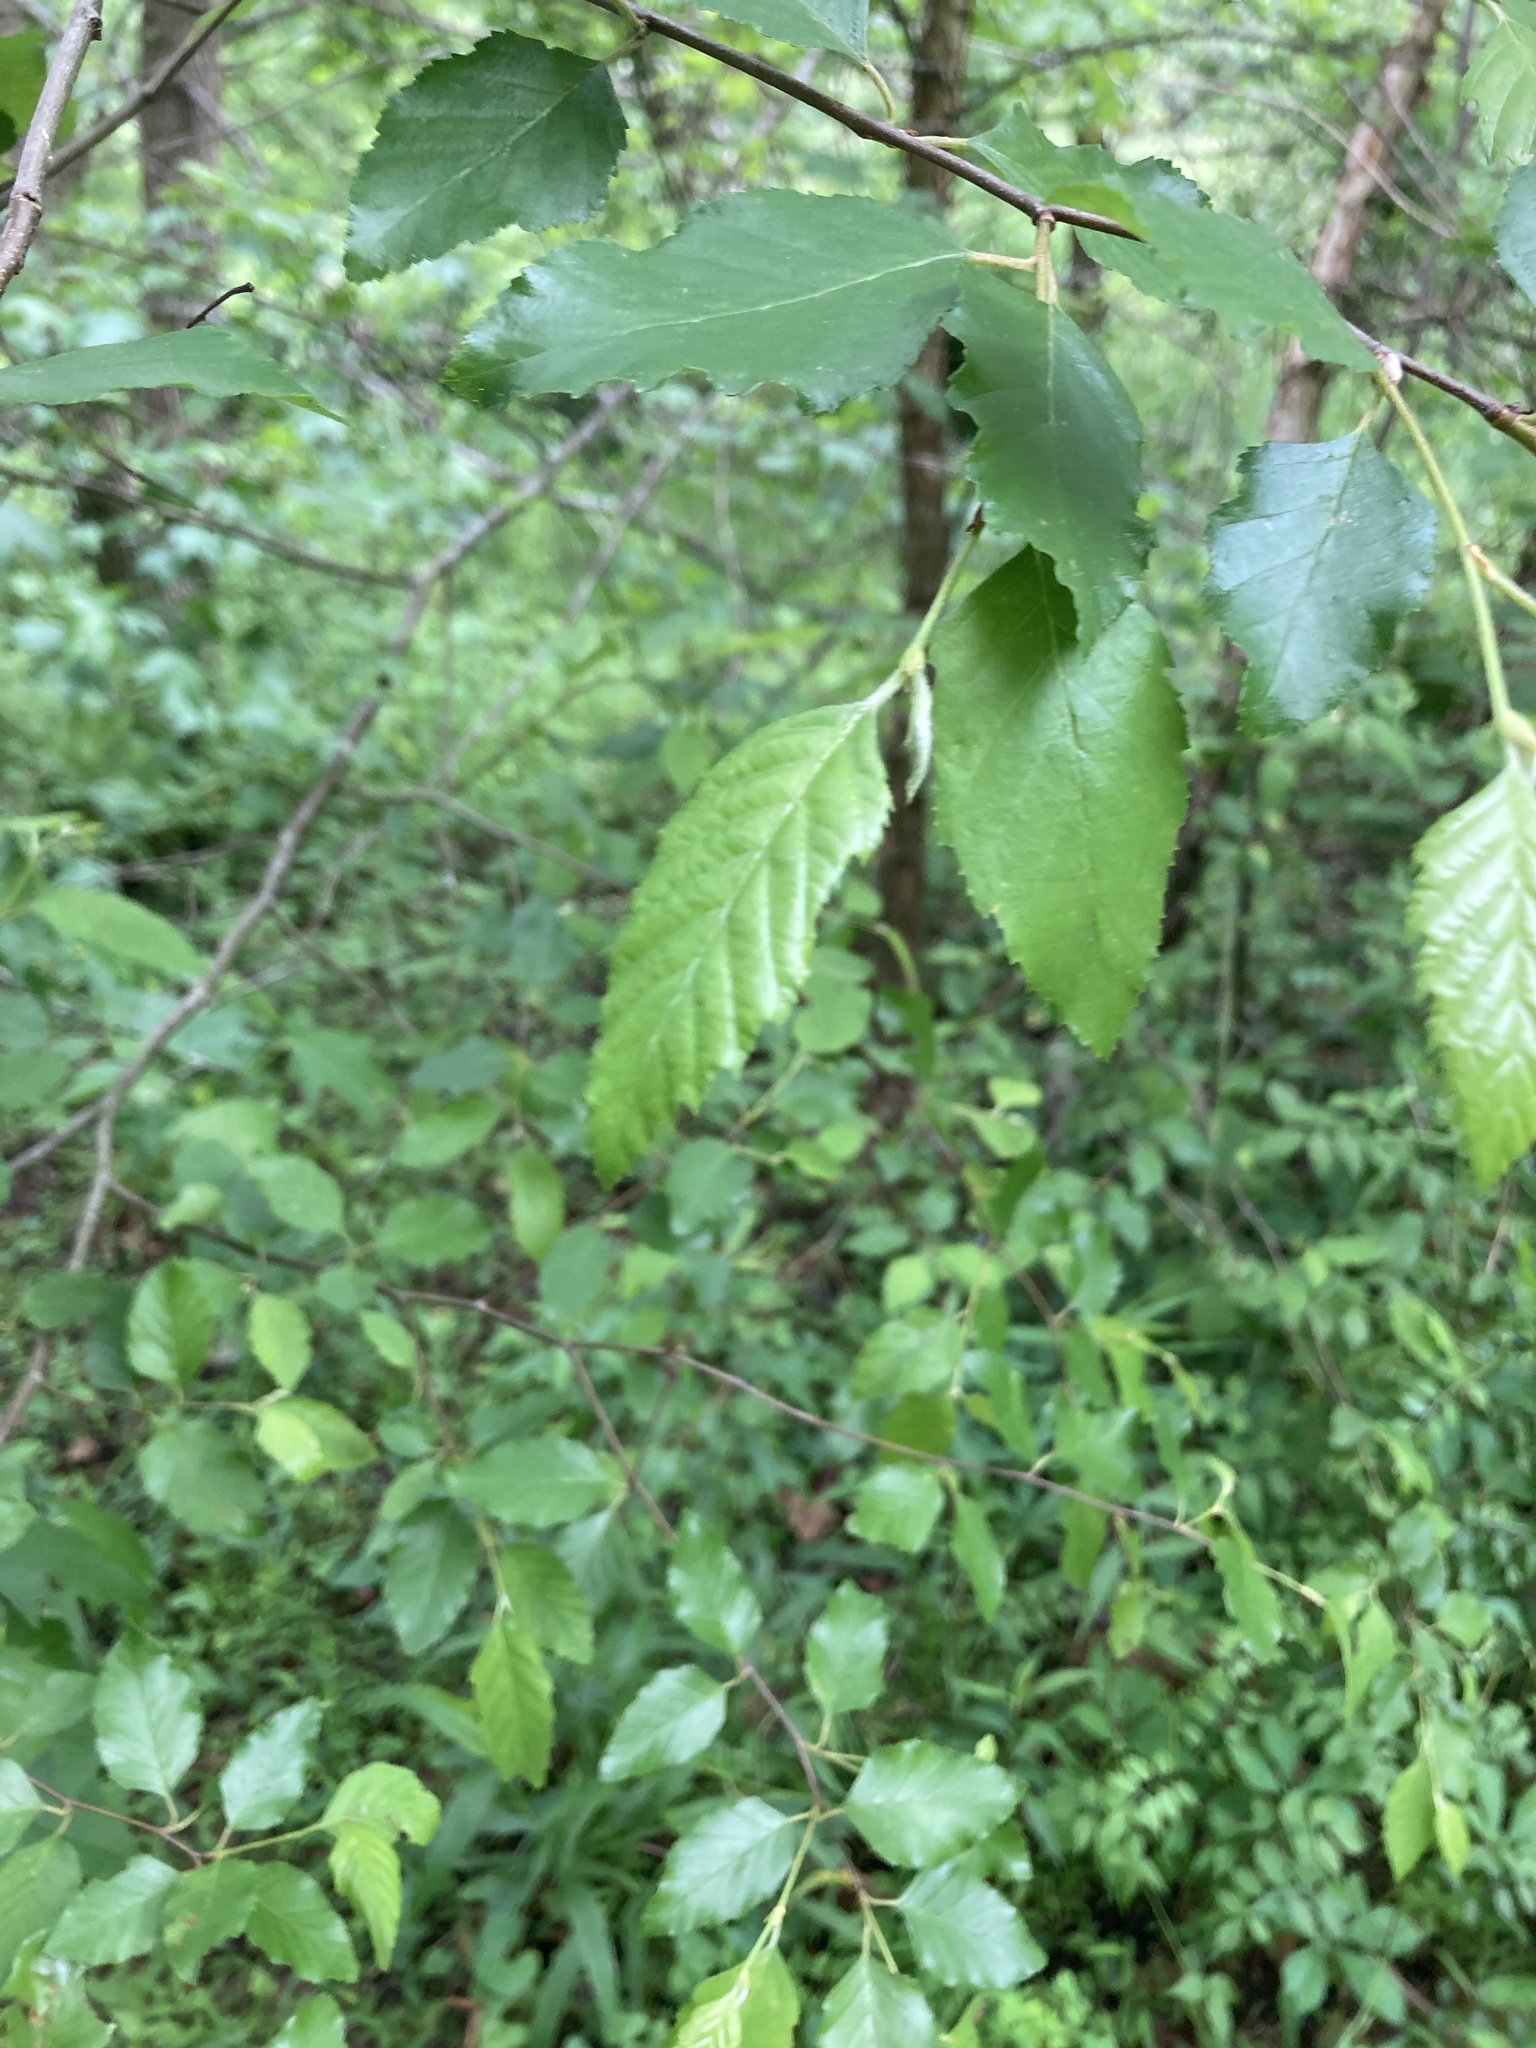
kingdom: Plantae
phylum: Tracheophyta
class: Magnoliopsida
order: Fagales
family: Betulaceae
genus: Betula
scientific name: Betula nigra
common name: Black birch
